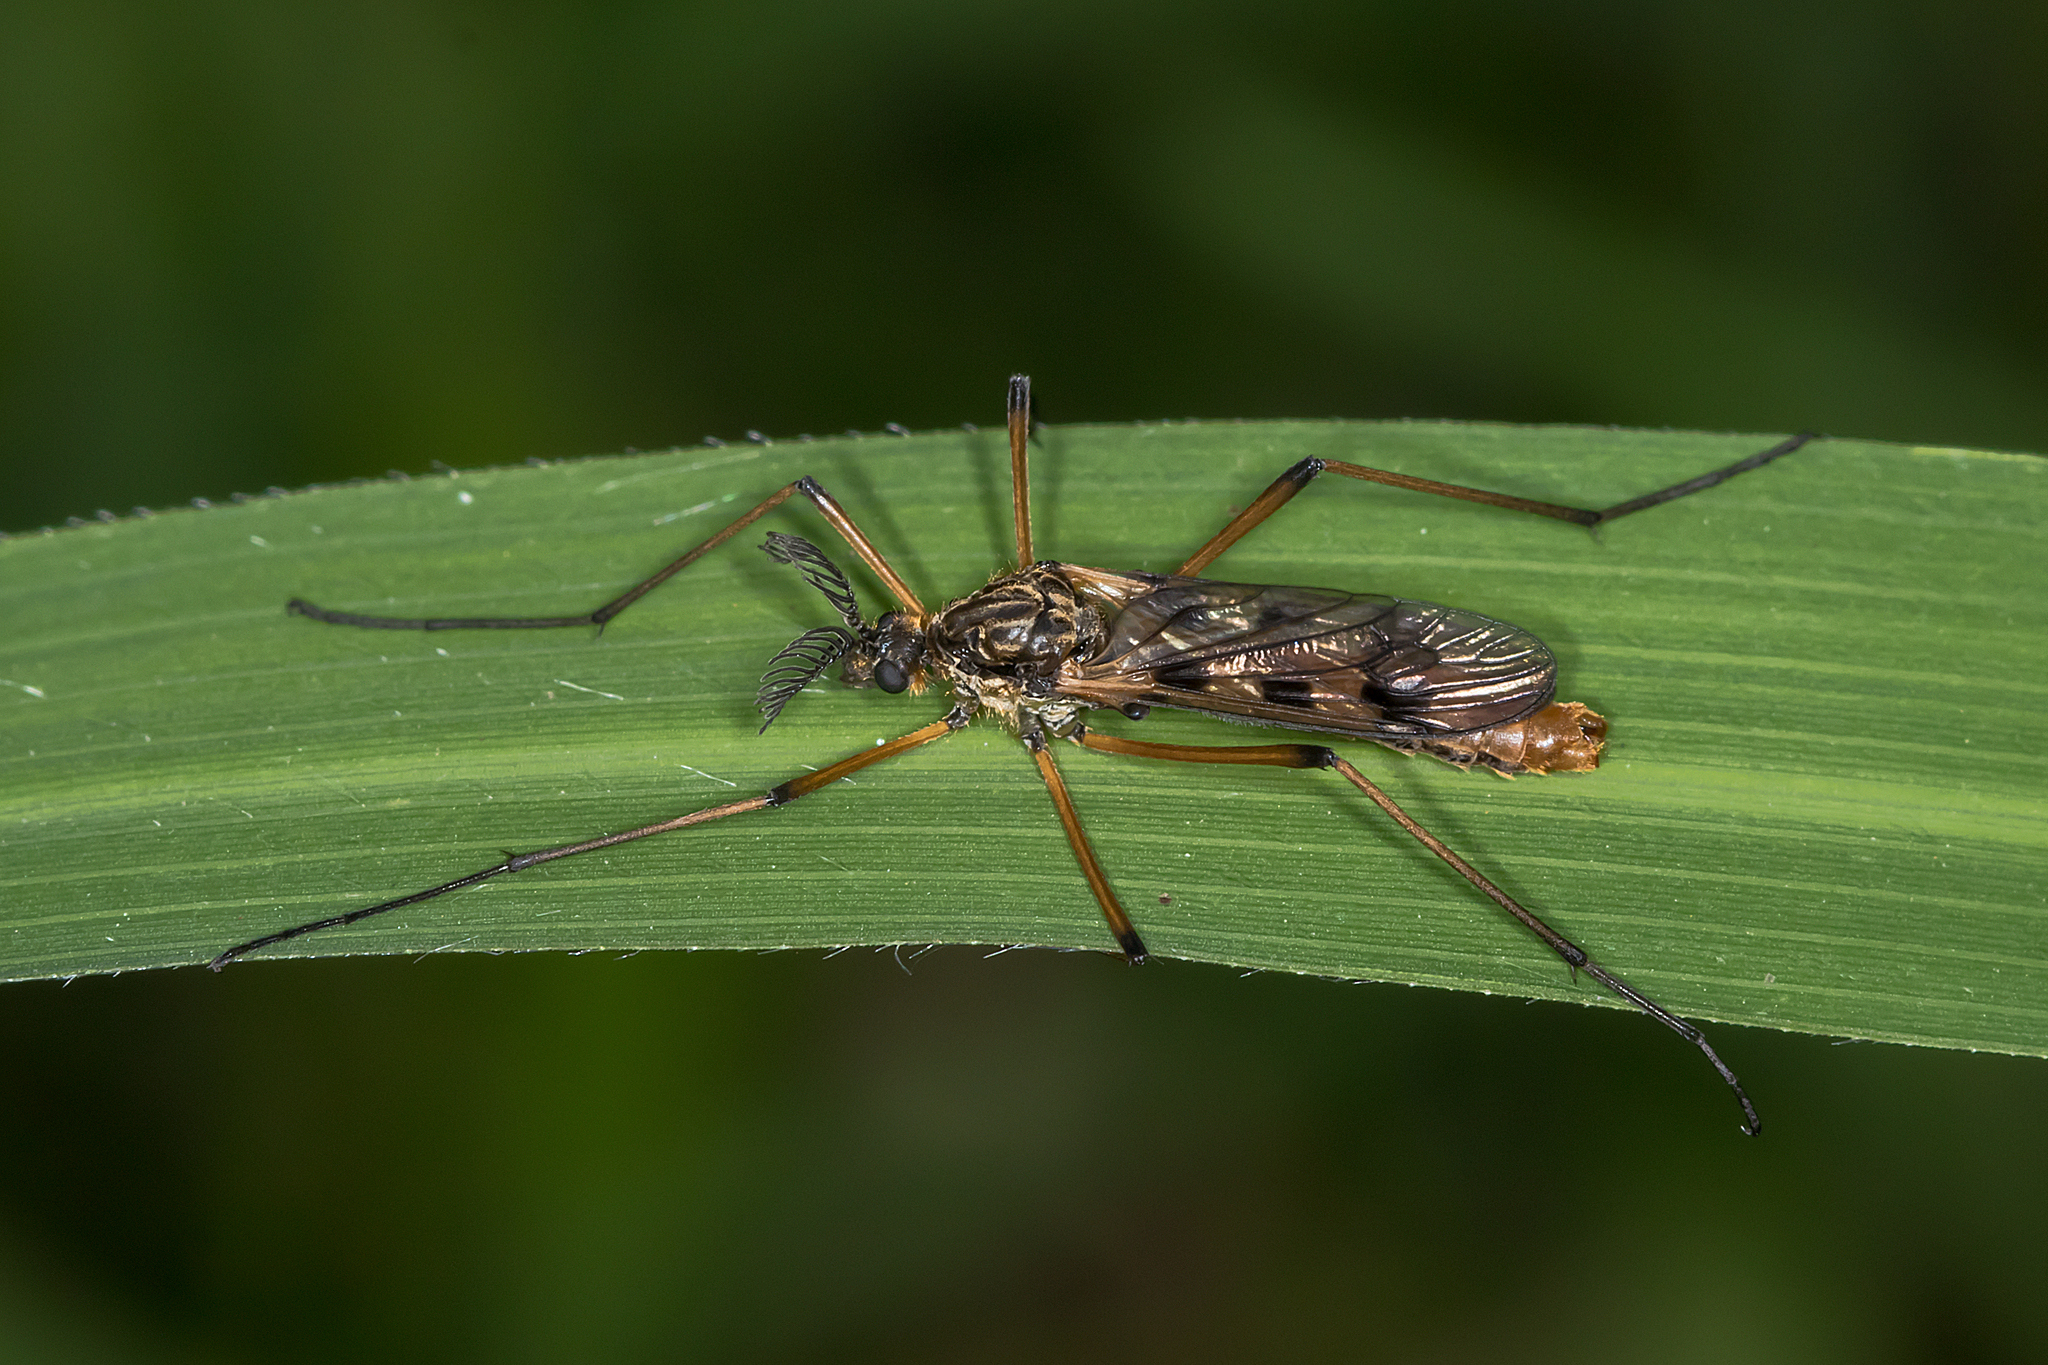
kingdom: Animalia
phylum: Arthropoda
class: Insecta
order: Diptera
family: Limoniidae
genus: Gynoplistia
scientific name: Gynoplistia bella
